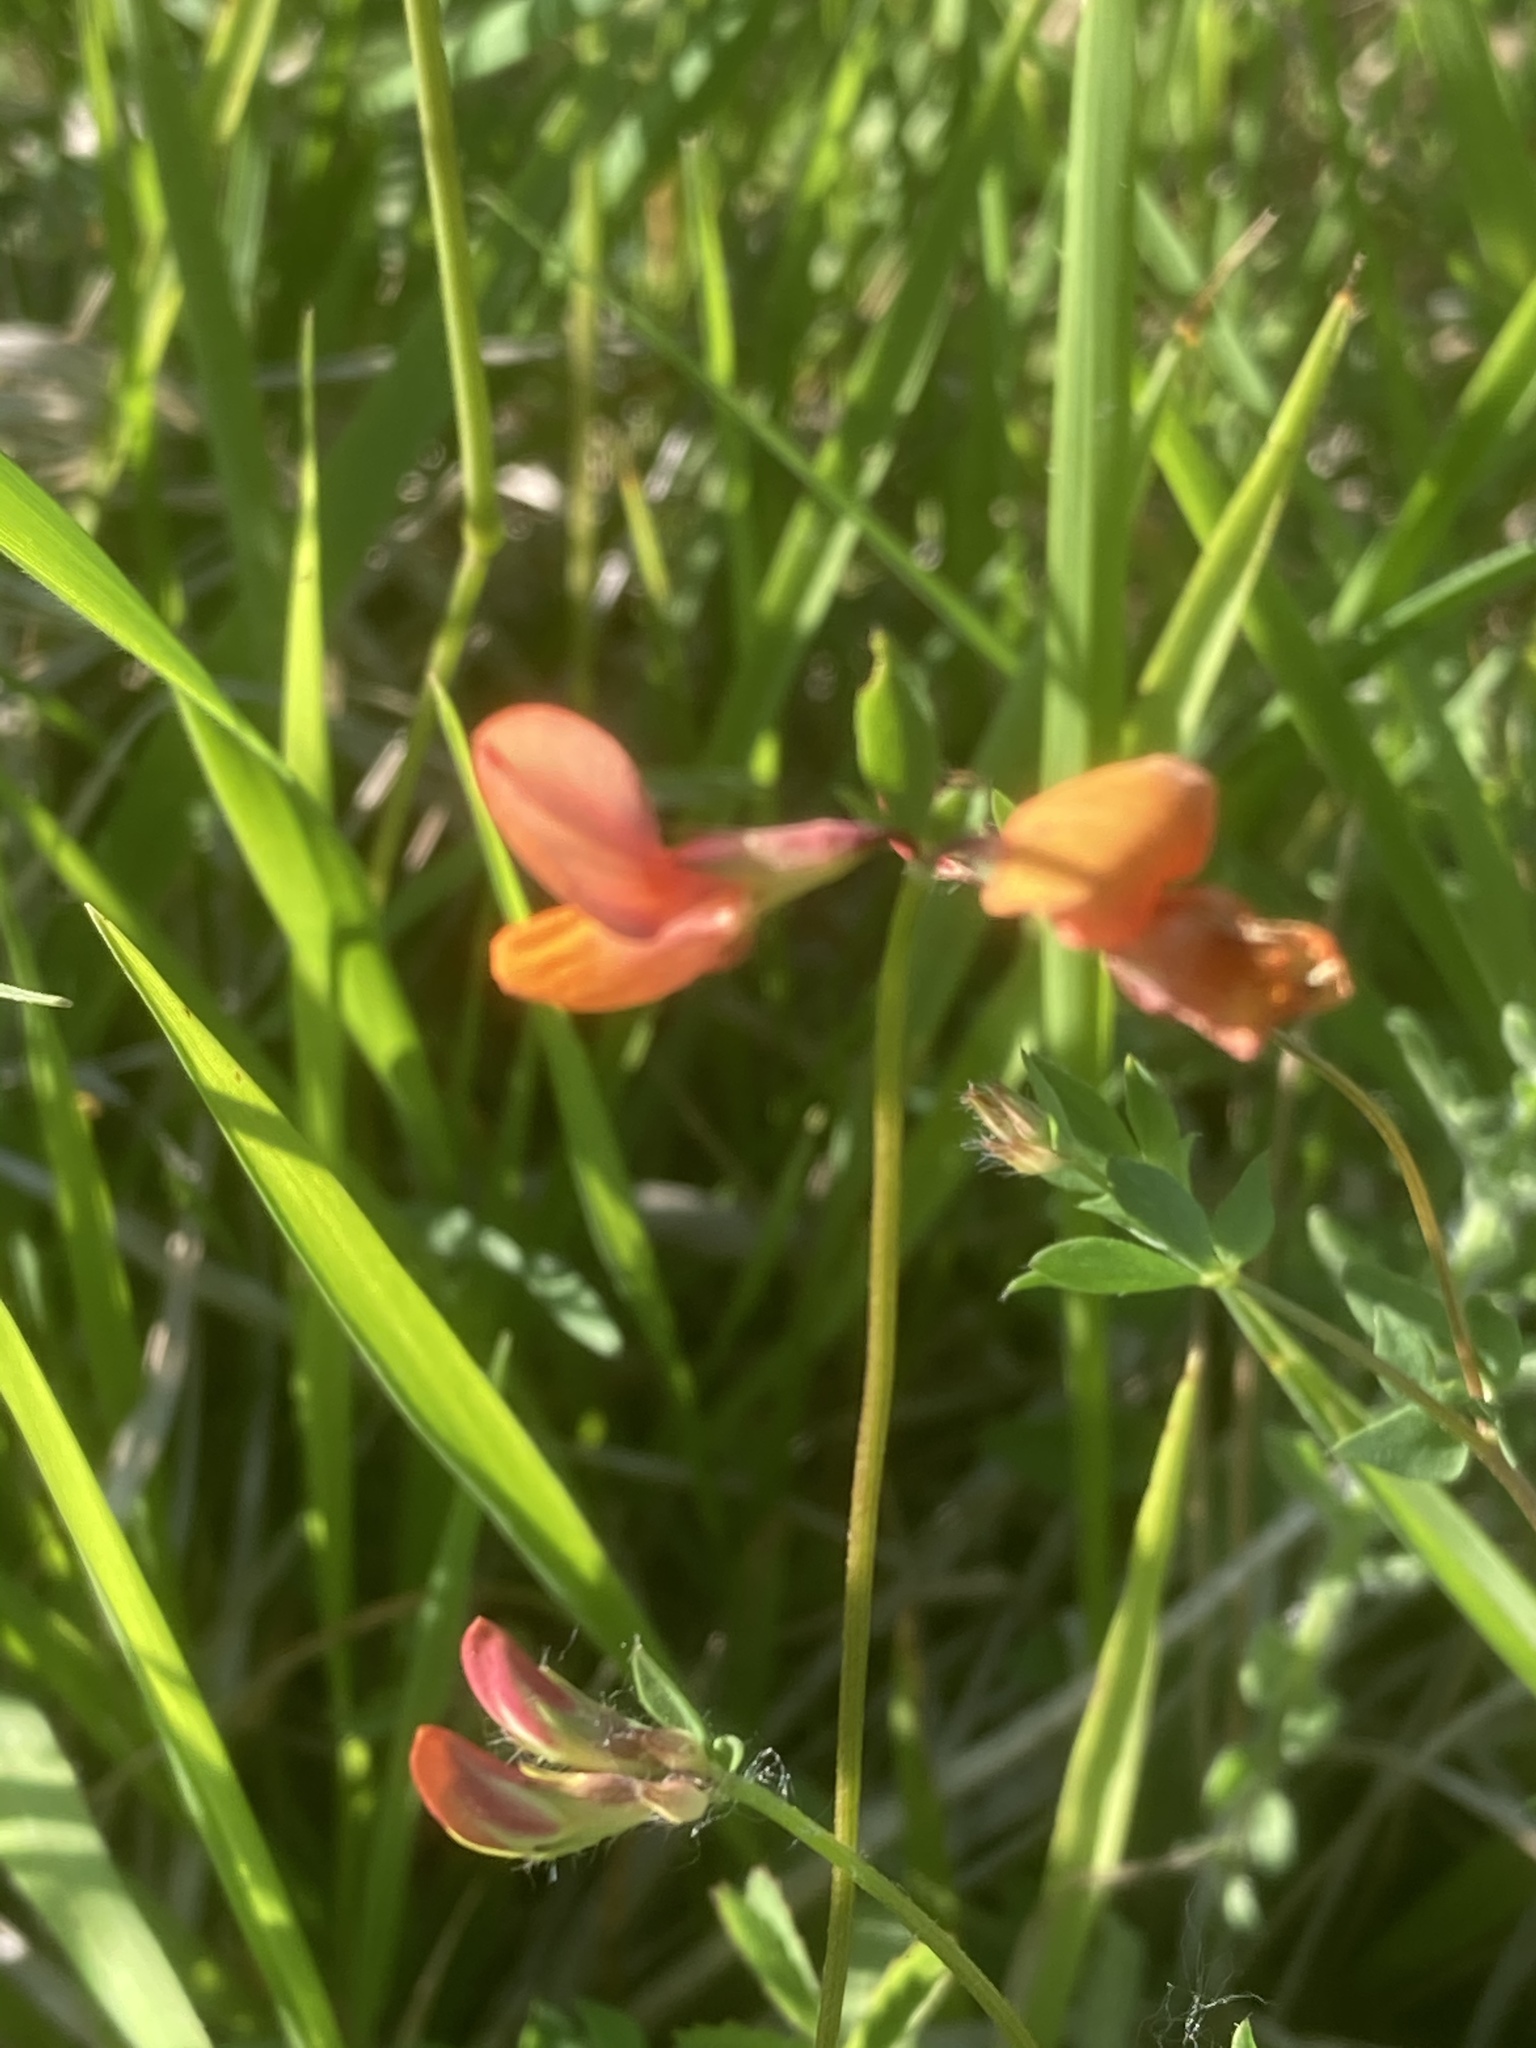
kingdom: Plantae
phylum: Tracheophyta
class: Magnoliopsida
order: Fabales
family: Fabaceae
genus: Lotus
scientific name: Lotus corniculatus
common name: Common bird's-foot-trefoil
